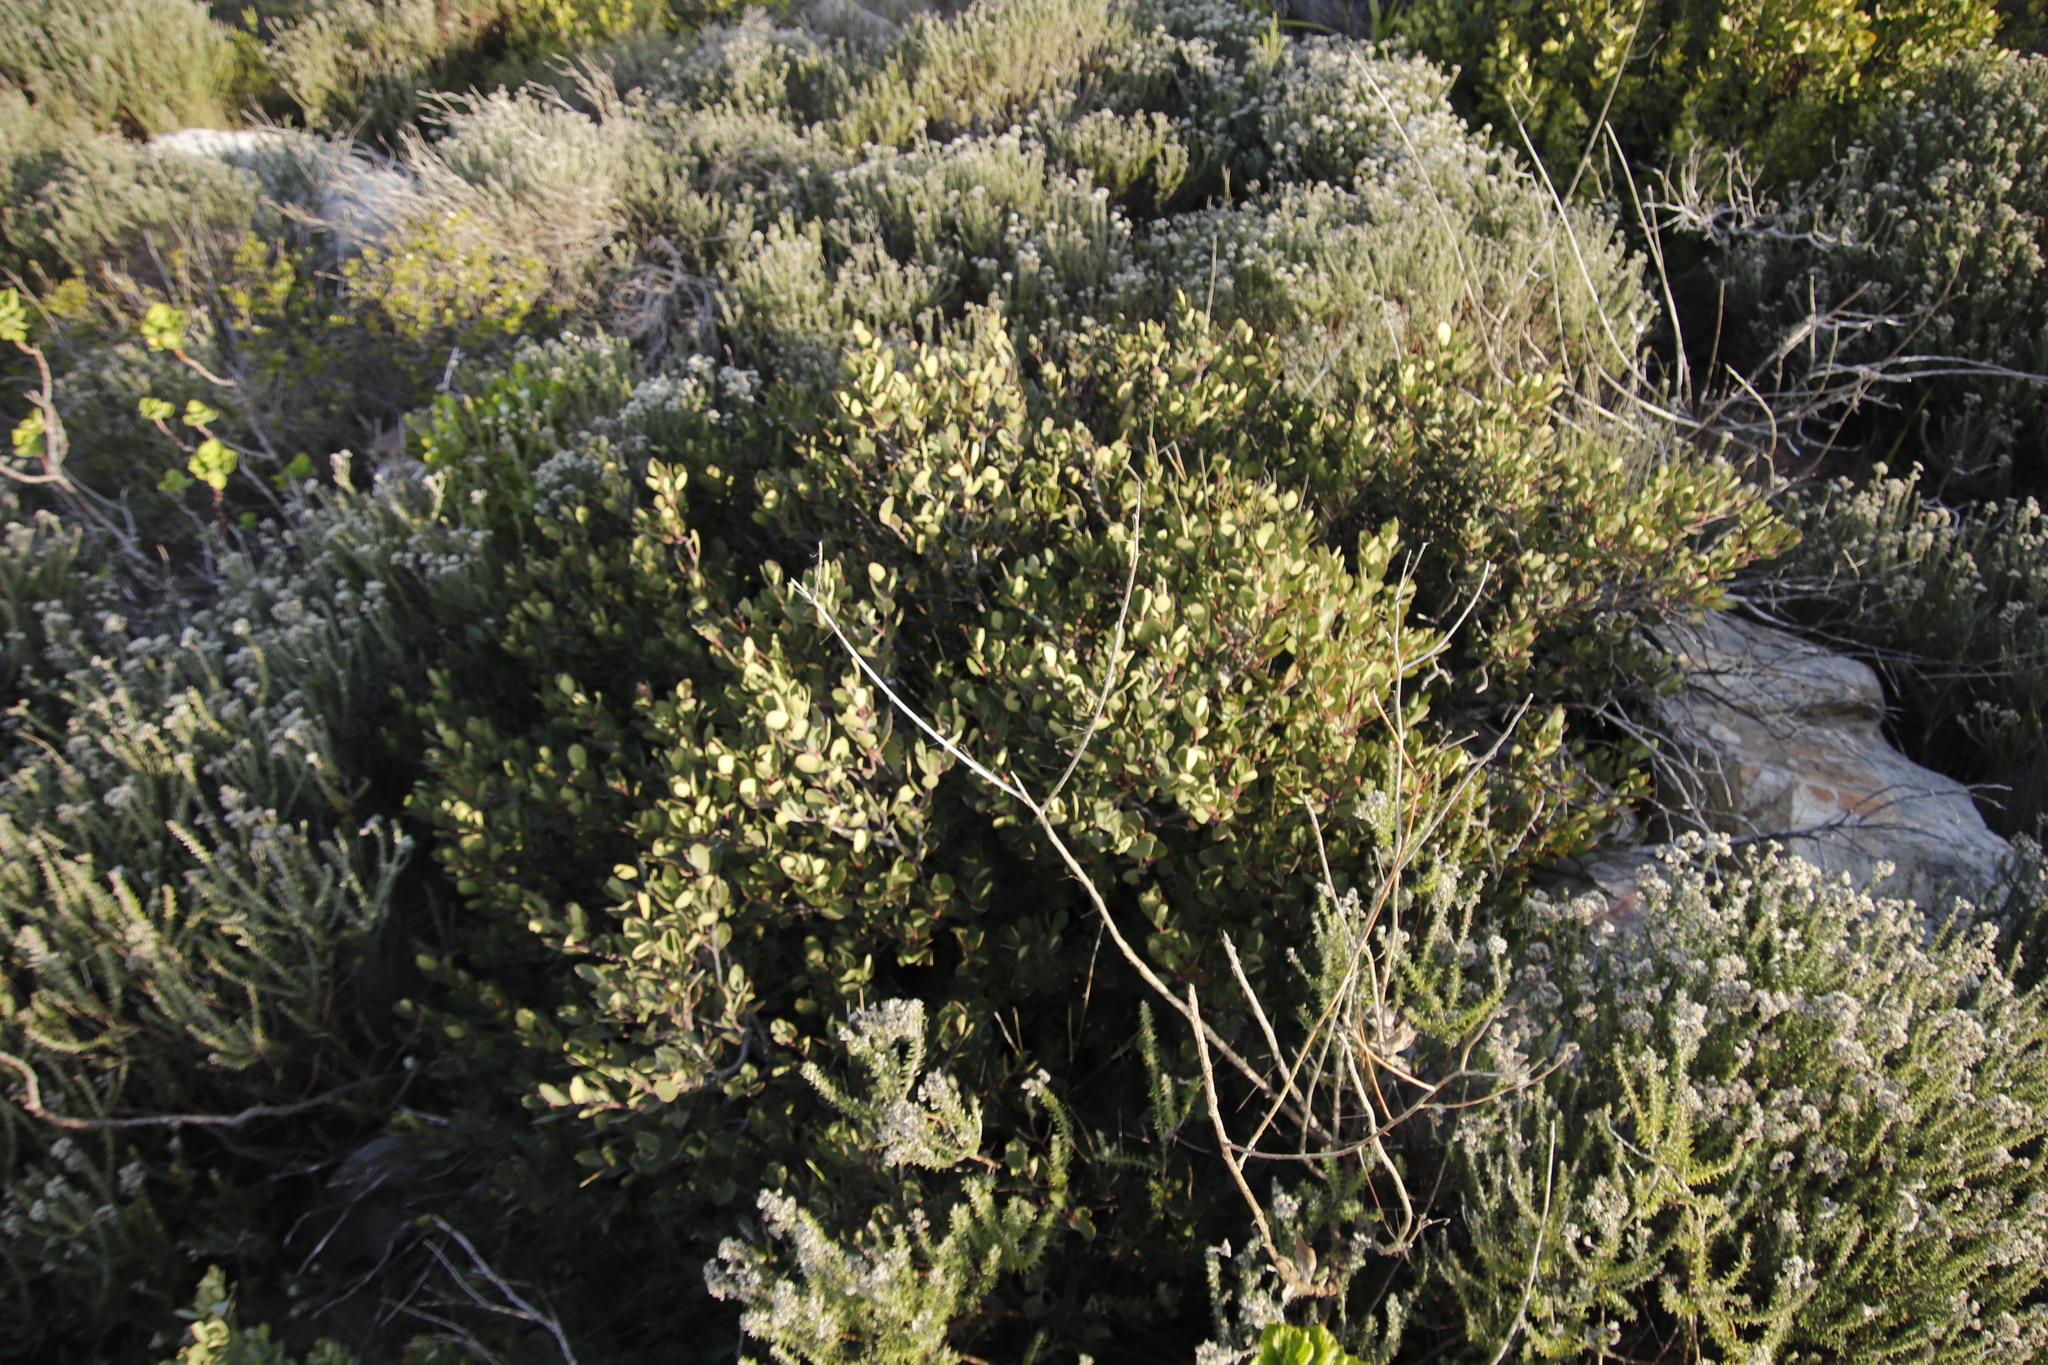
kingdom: Plantae
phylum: Tracheophyta
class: Magnoliopsida
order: Celastrales
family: Celastraceae
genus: Pterocelastrus
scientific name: Pterocelastrus tricuspidatus
